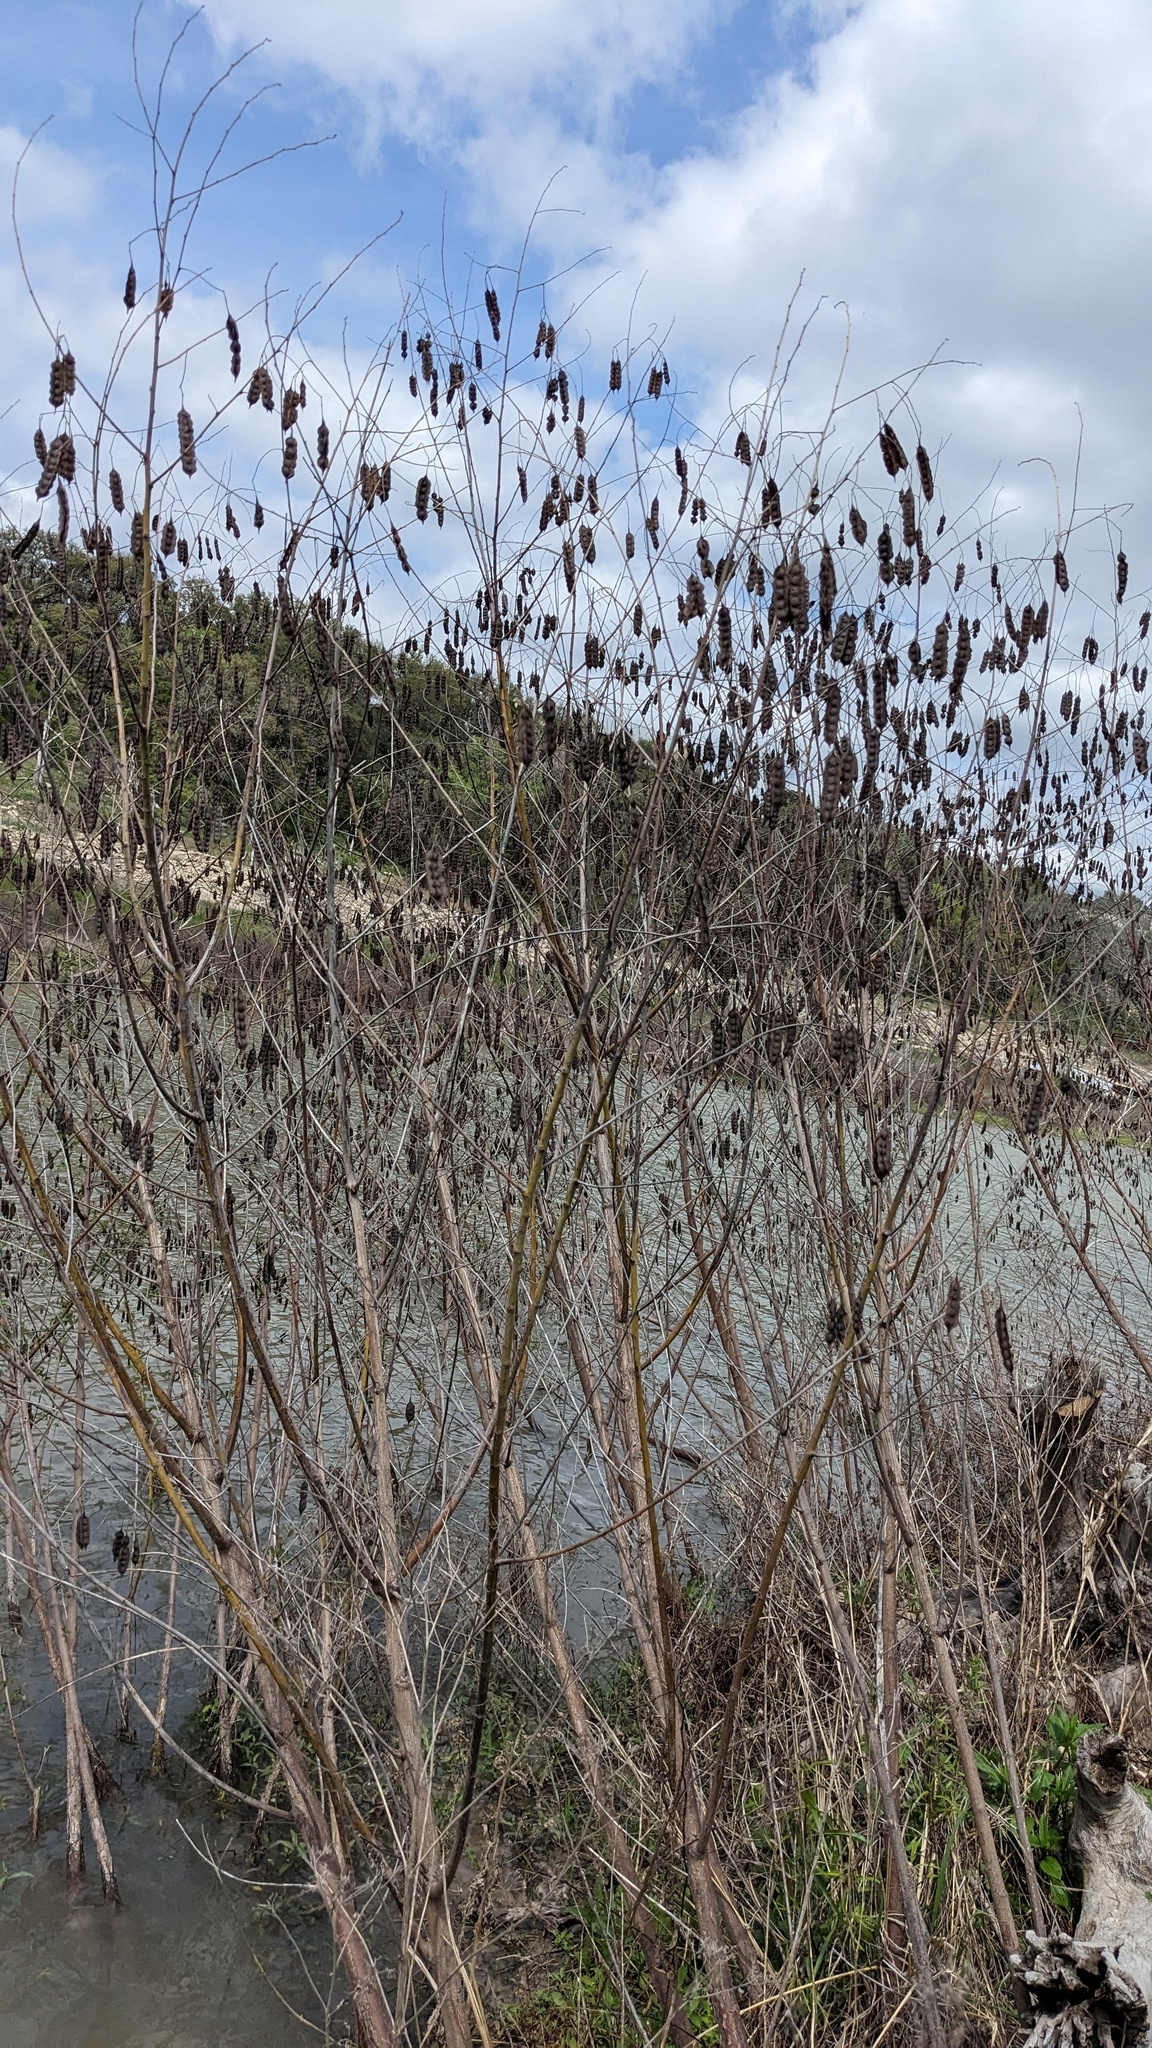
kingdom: Plantae
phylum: Tracheophyta
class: Magnoliopsida
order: Fabales
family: Fabaceae
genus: Sesbania
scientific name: Sesbania drummondii
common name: Poison-bean
